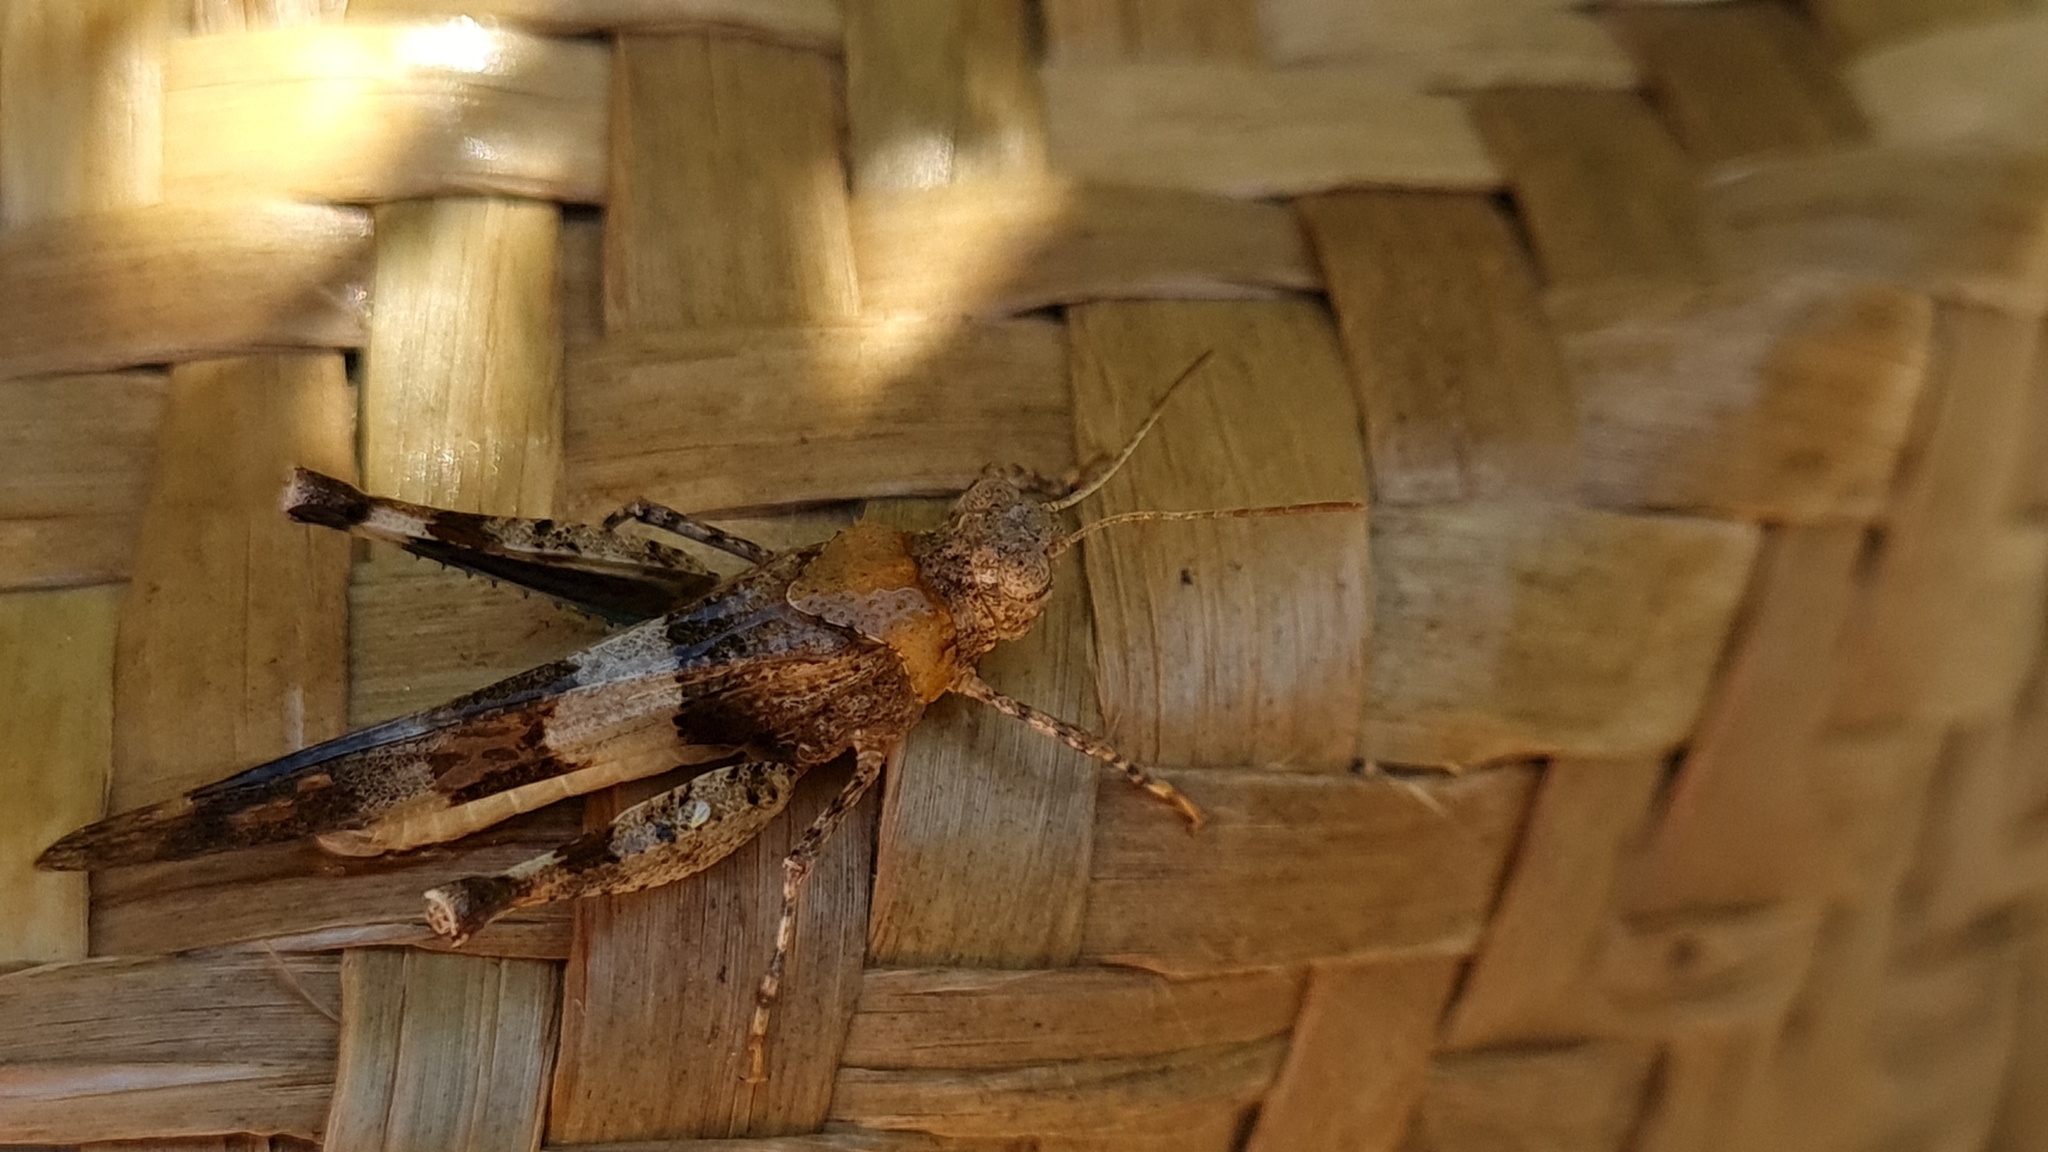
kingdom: Animalia
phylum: Arthropoda
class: Insecta
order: Orthoptera
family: Acrididae
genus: Oedipoda
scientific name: Oedipoda caerulescens
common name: Blue-winged grasshopper
